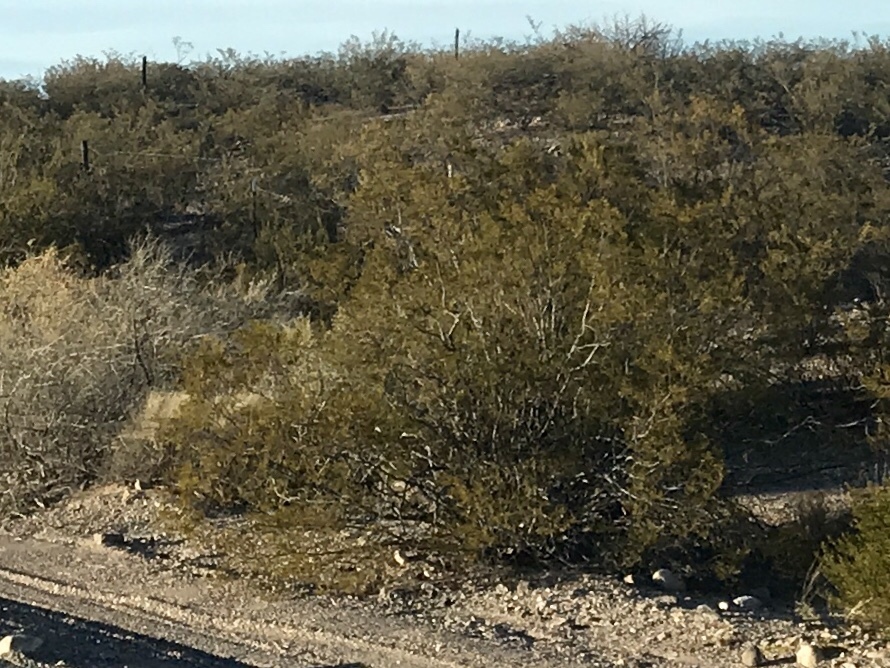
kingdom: Plantae
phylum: Tracheophyta
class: Magnoliopsida
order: Zygophyllales
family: Zygophyllaceae
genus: Larrea
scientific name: Larrea tridentata
